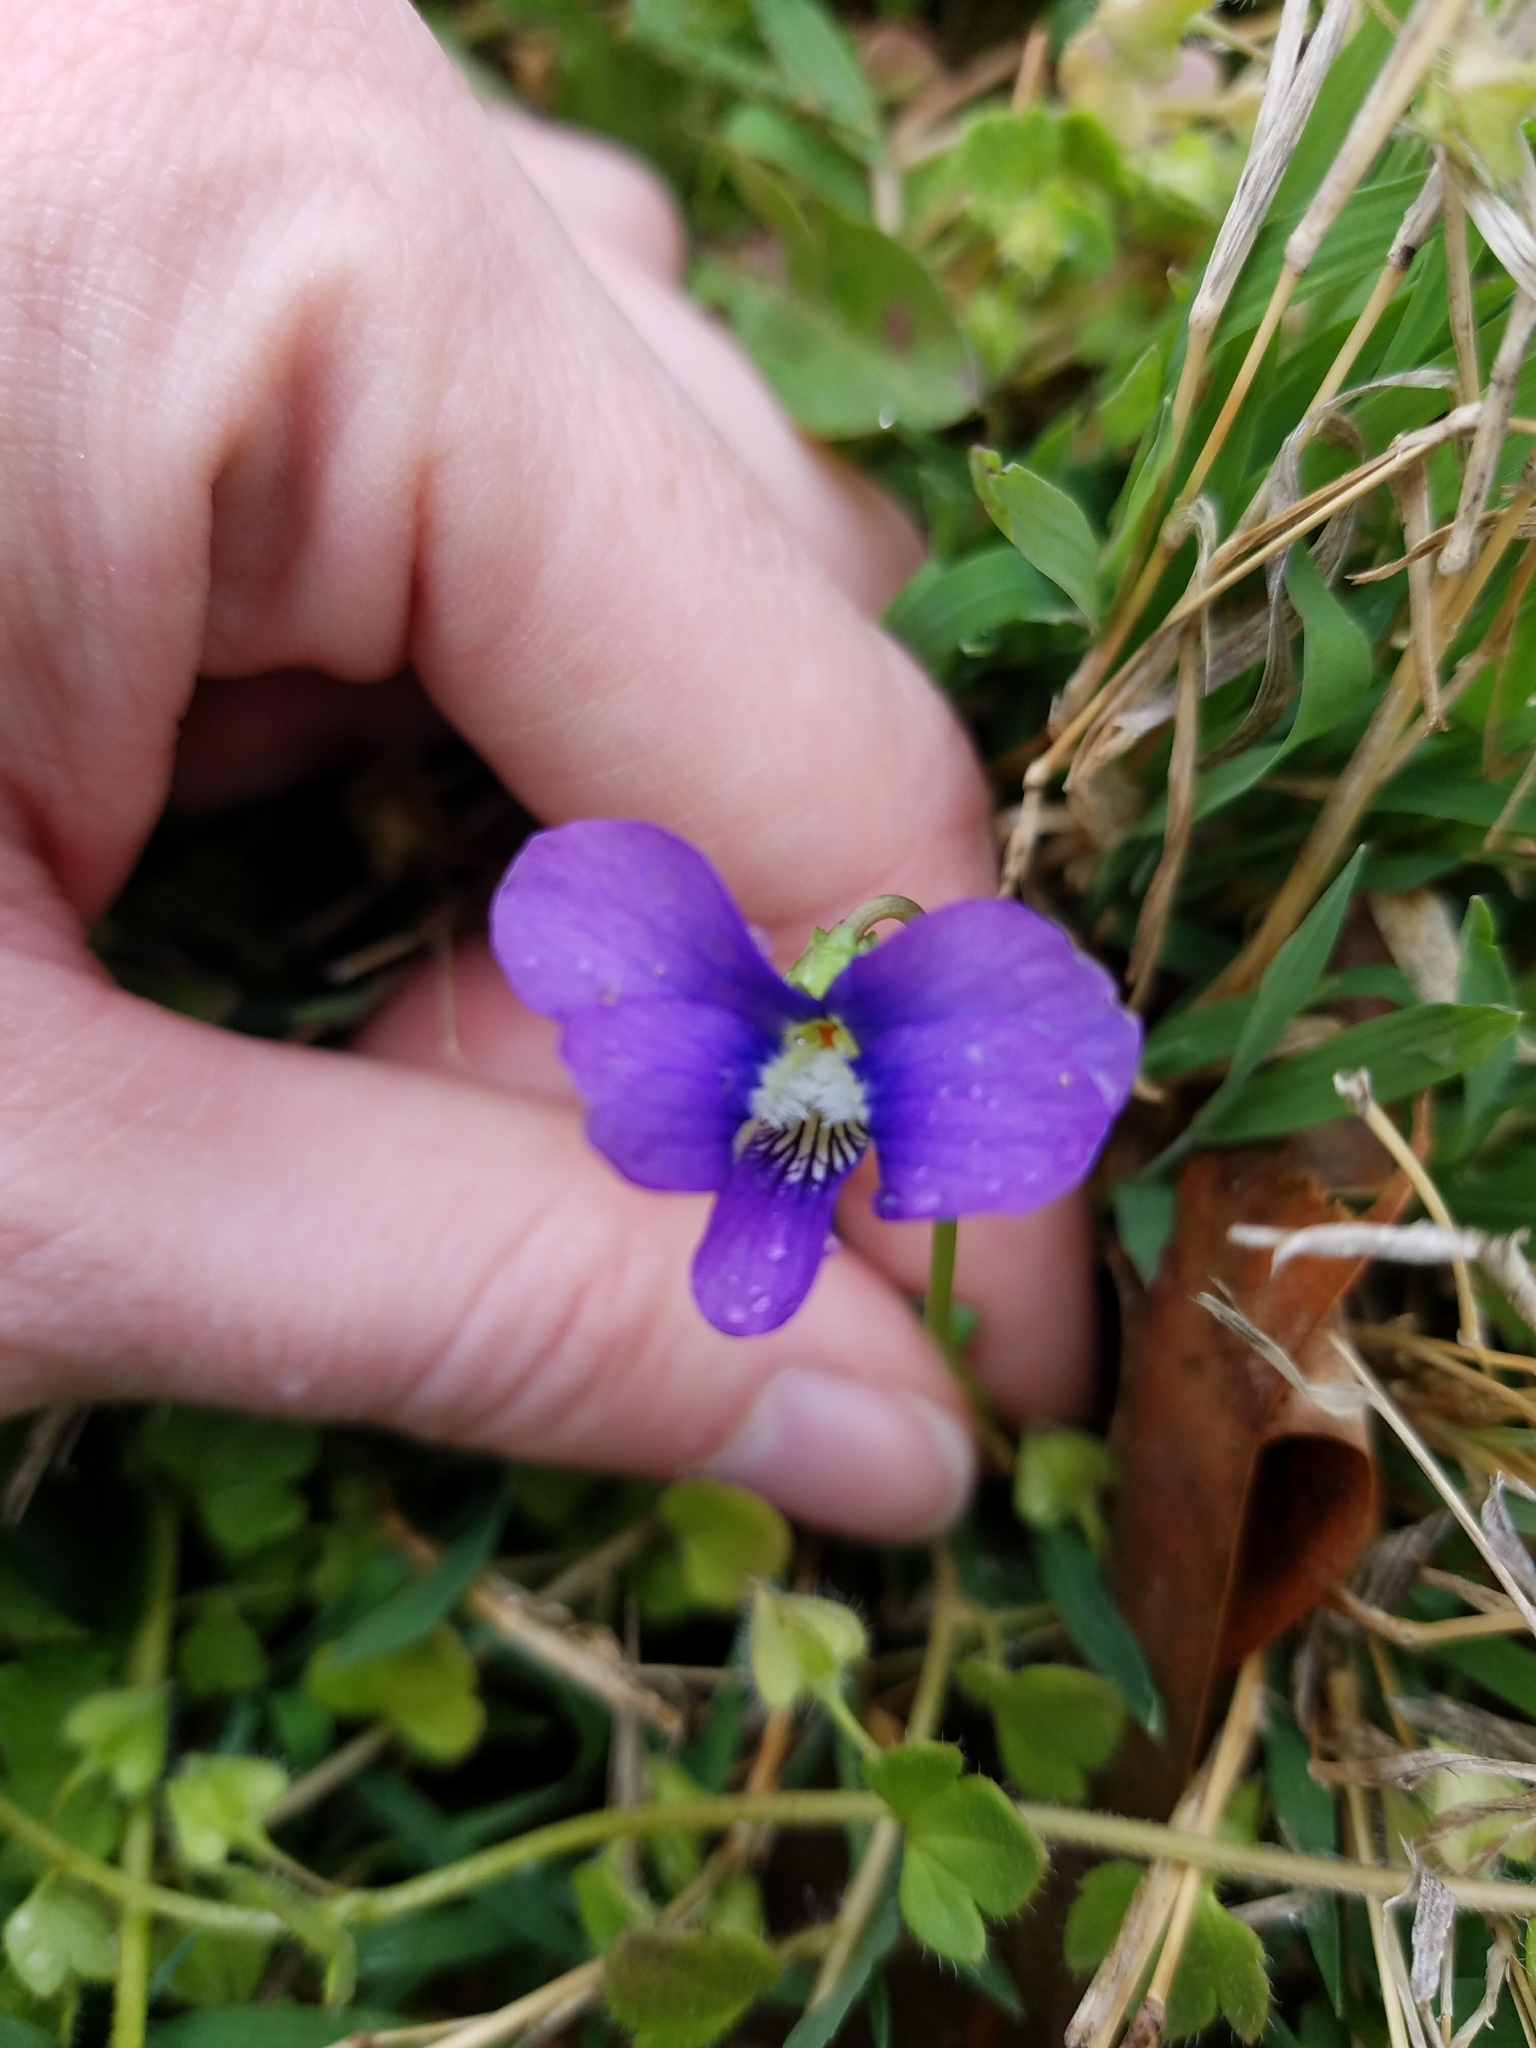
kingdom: Plantae
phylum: Tracheophyta
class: Magnoliopsida
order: Malpighiales
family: Violaceae
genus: Viola
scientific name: Viola sororia
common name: Dooryard violet
